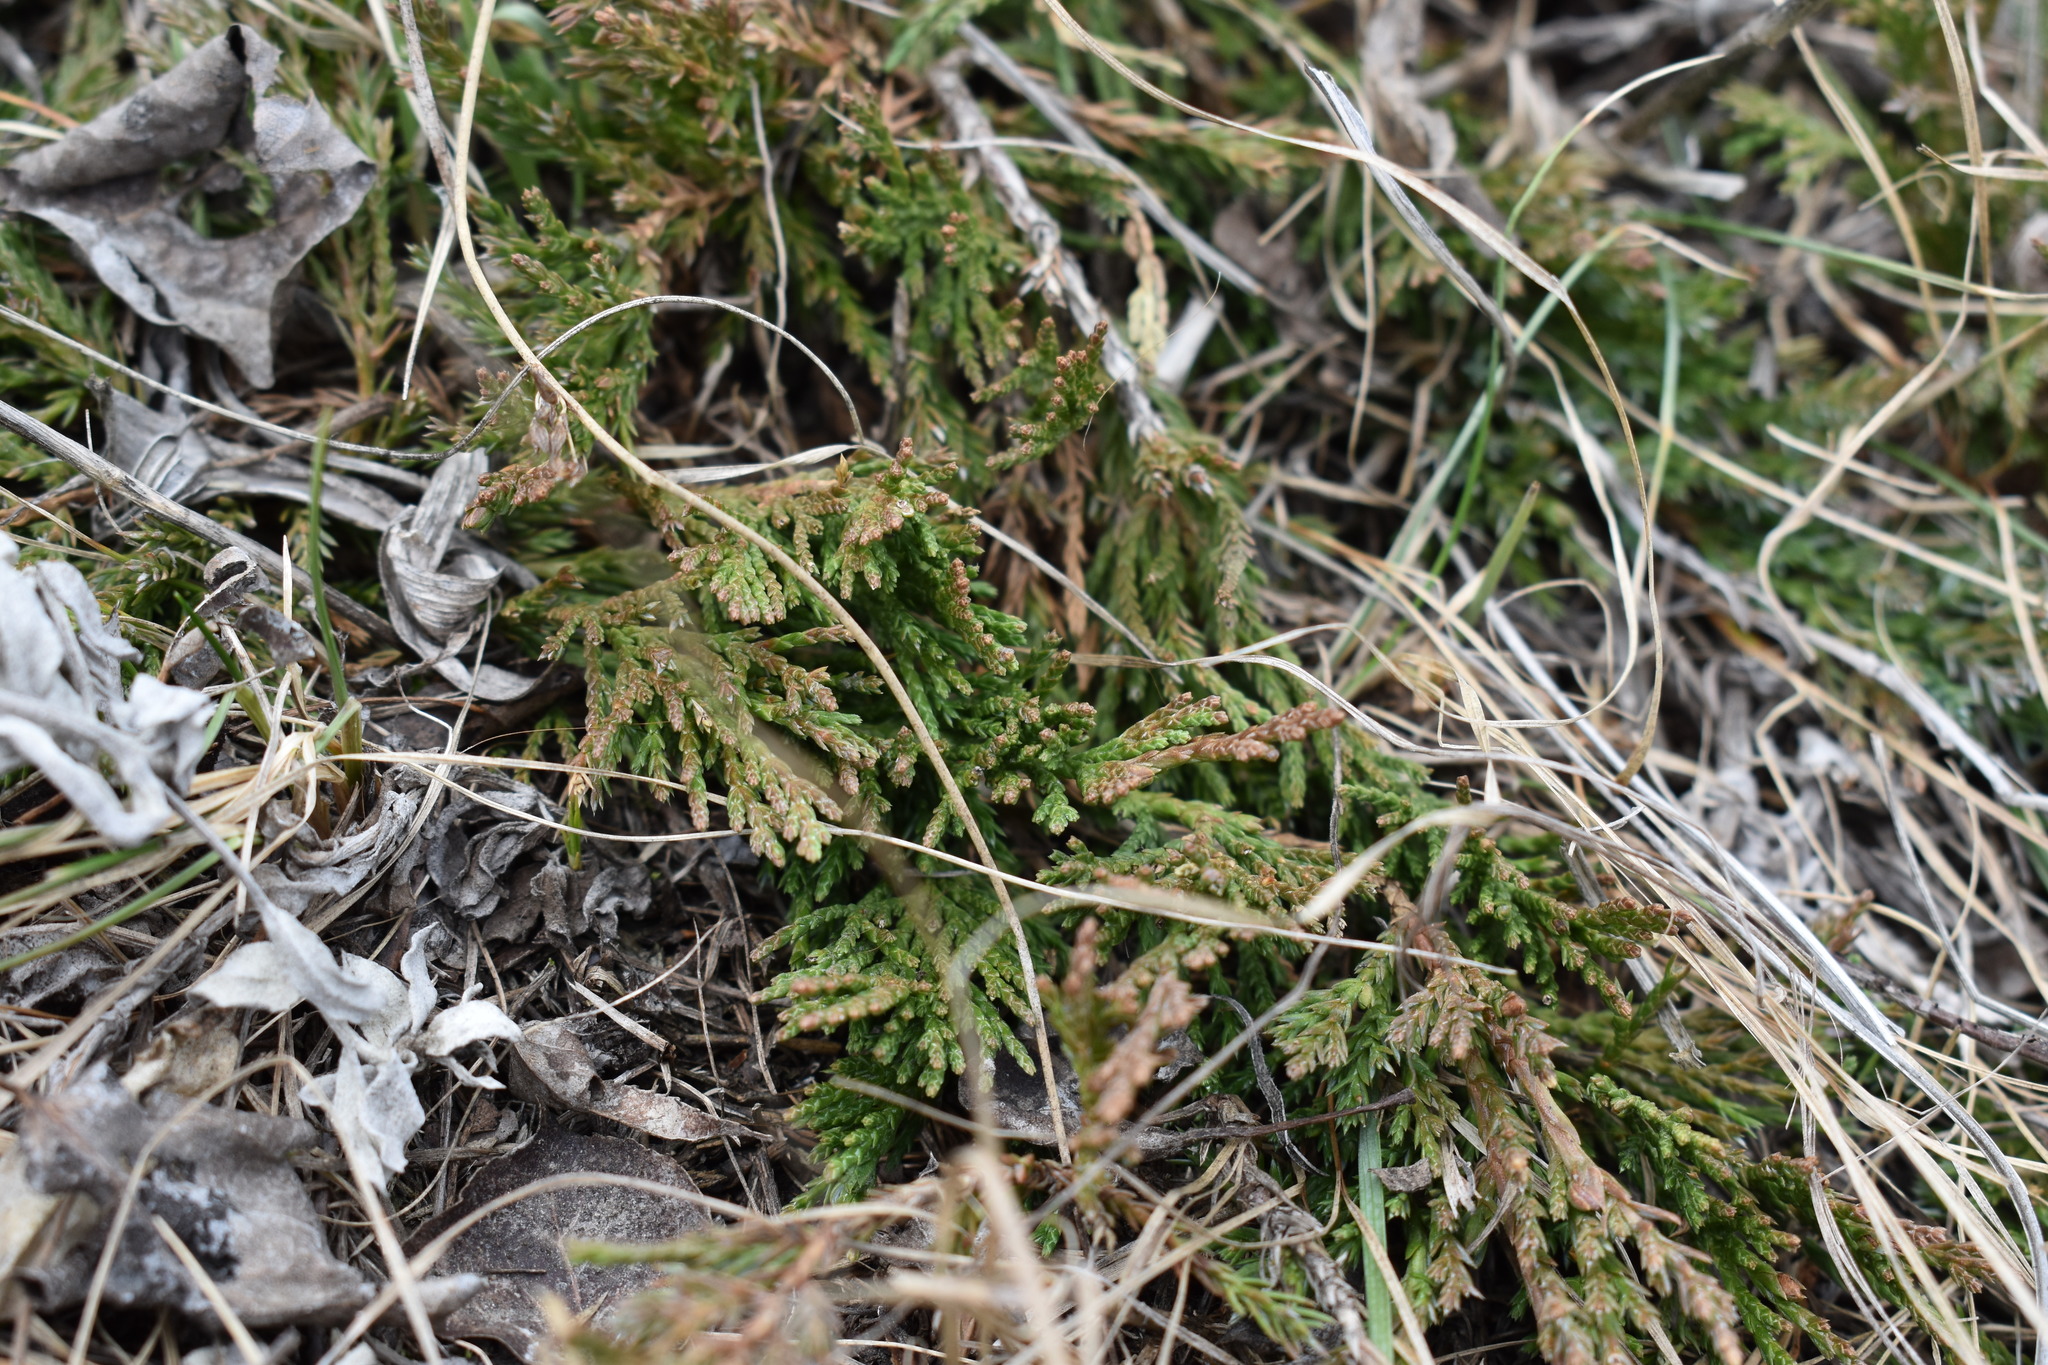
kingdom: Plantae
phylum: Tracheophyta
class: Pinopsida
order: Pinales
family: Cupressaceae
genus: Juniperus
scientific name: Juniperus horizontalis
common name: Creeping juniper
